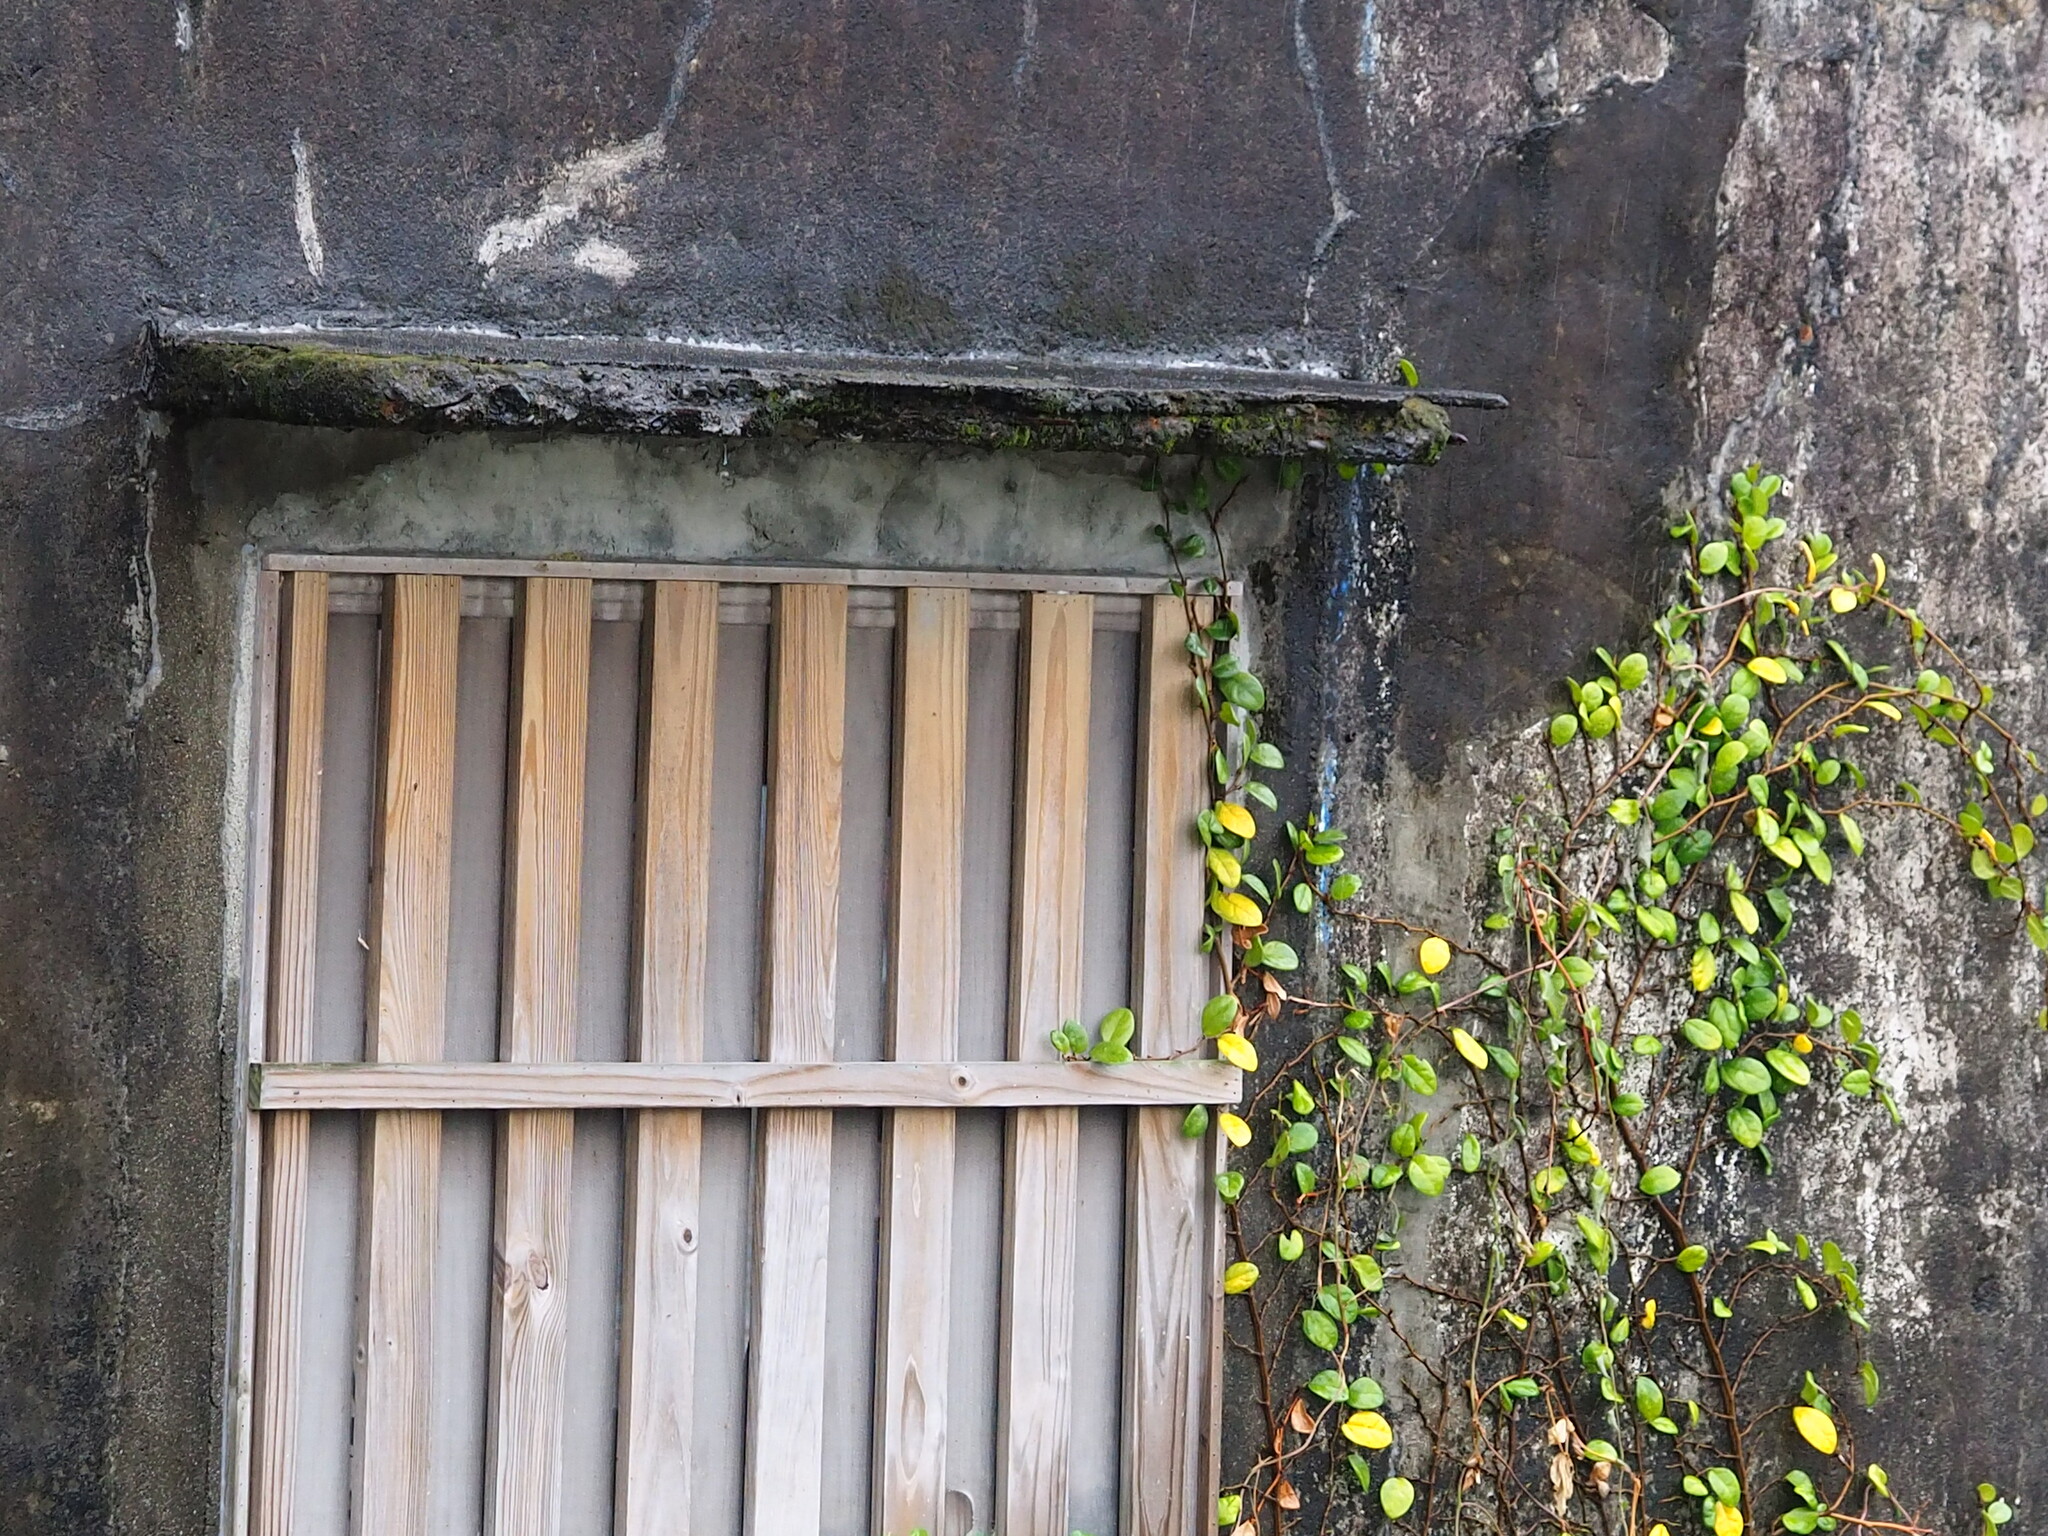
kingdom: Plantae
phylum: Tracheophyta
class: Magnoliopsida
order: Rosales
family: Moraceae
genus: Ficus
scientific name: Ficus pumila
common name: Climbingfig
